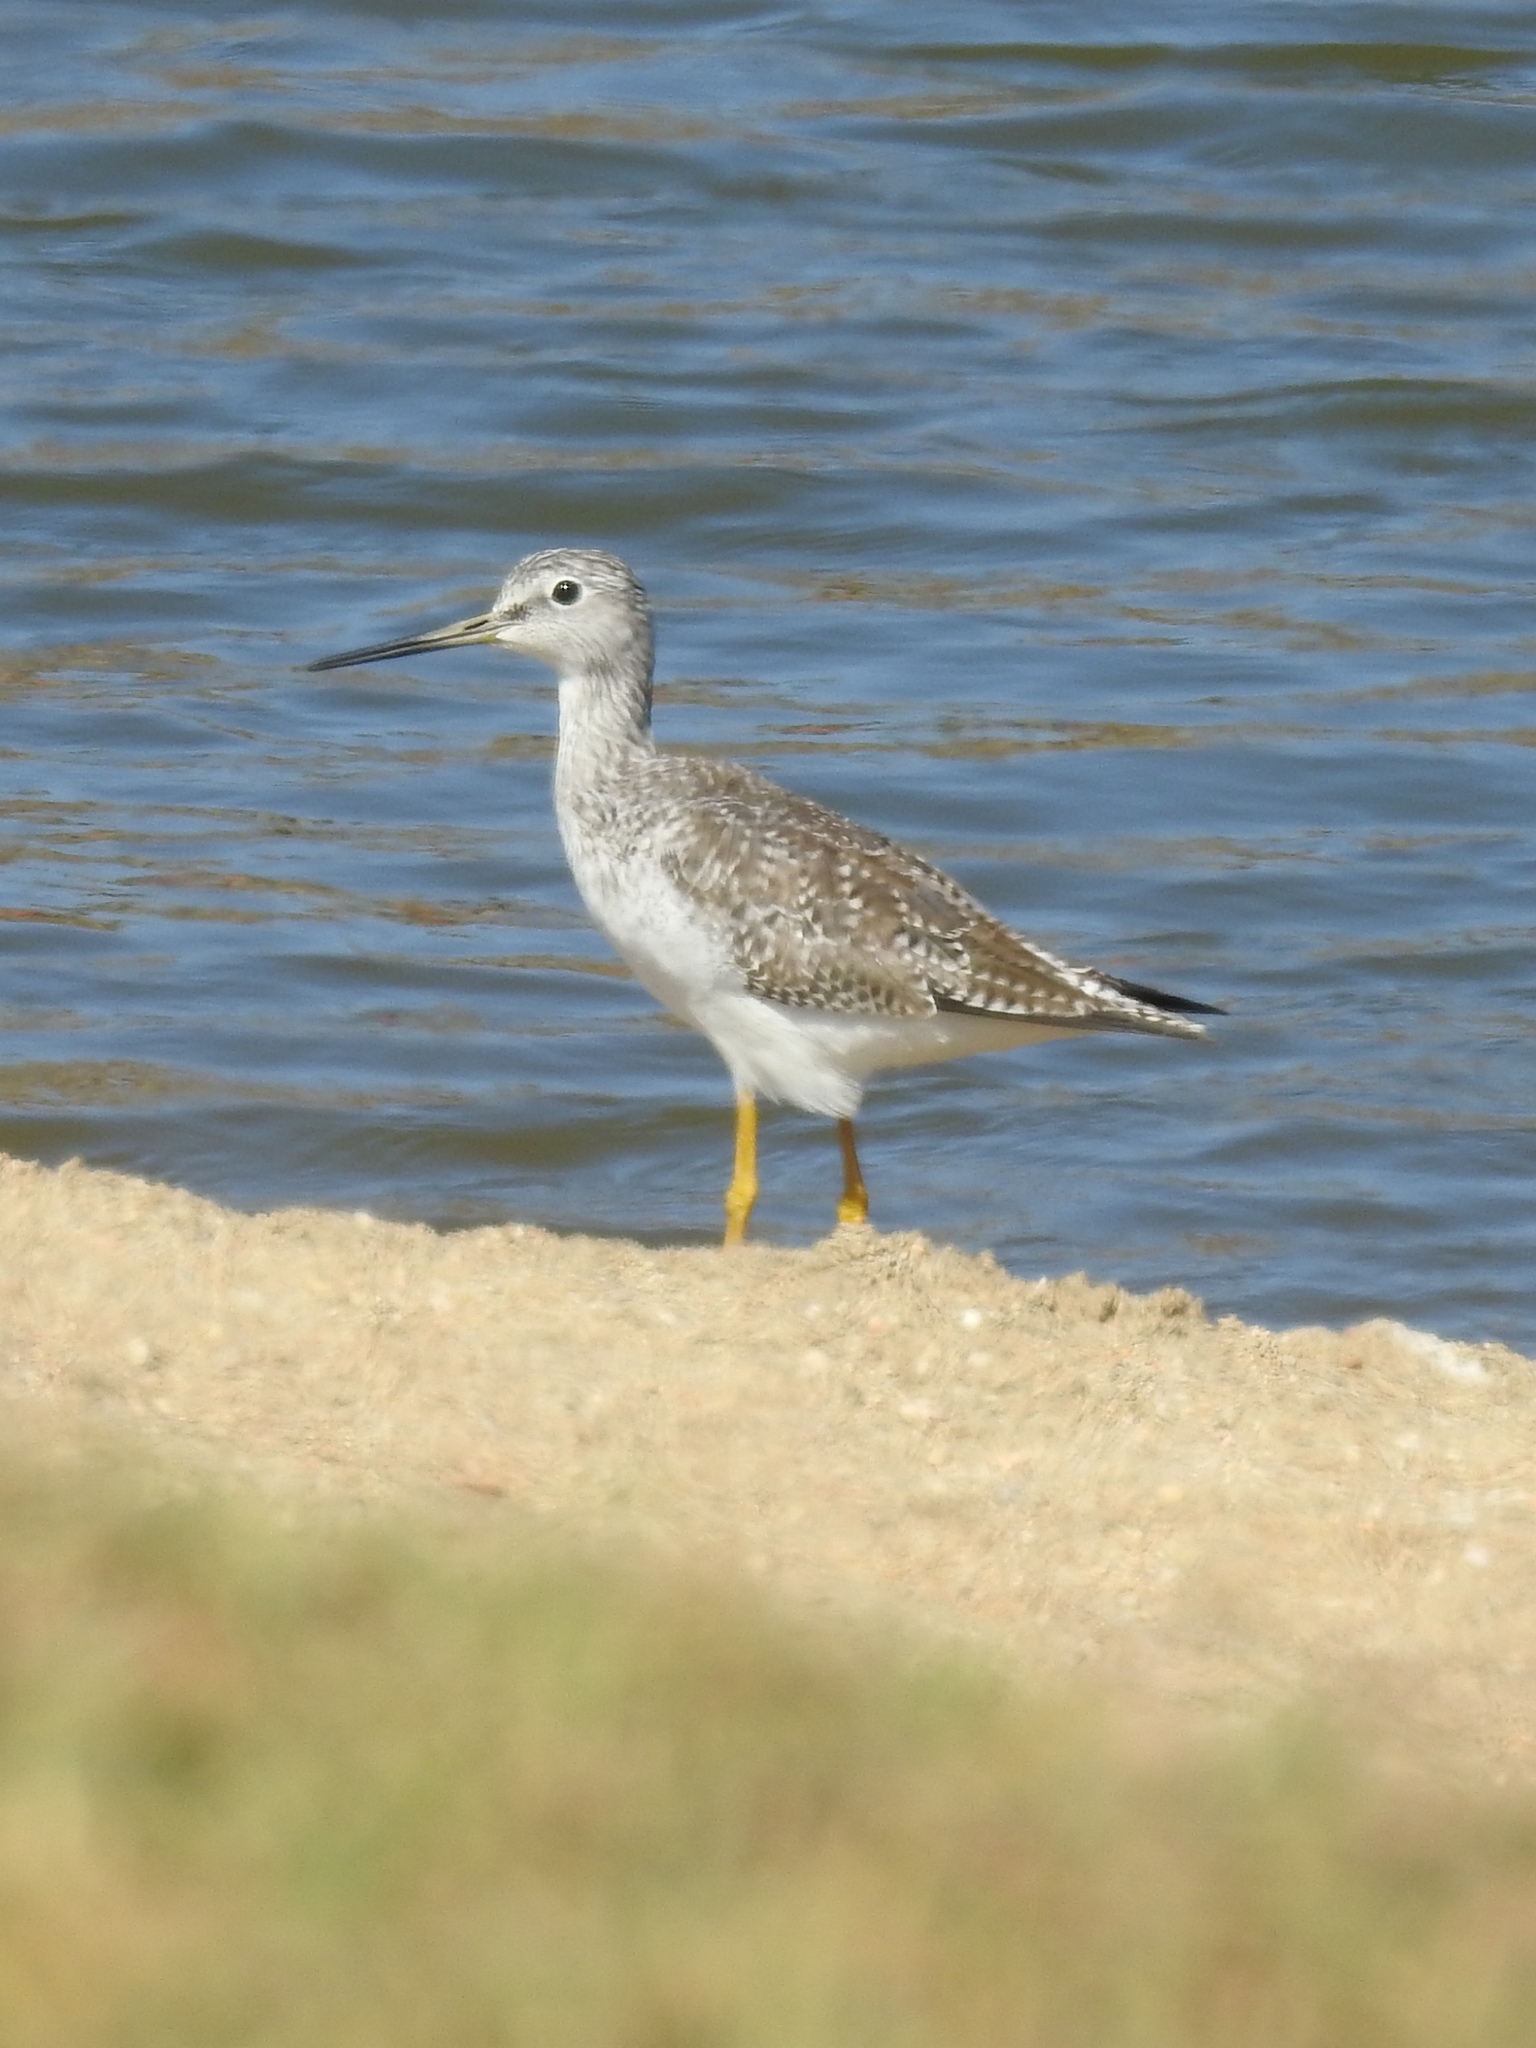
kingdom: Animalia
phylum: Chordata
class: Aves
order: Charadriiformes
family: Scolopacidae
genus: Tringa
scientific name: Tringa melanoleuca
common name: Greater yellowlegs
